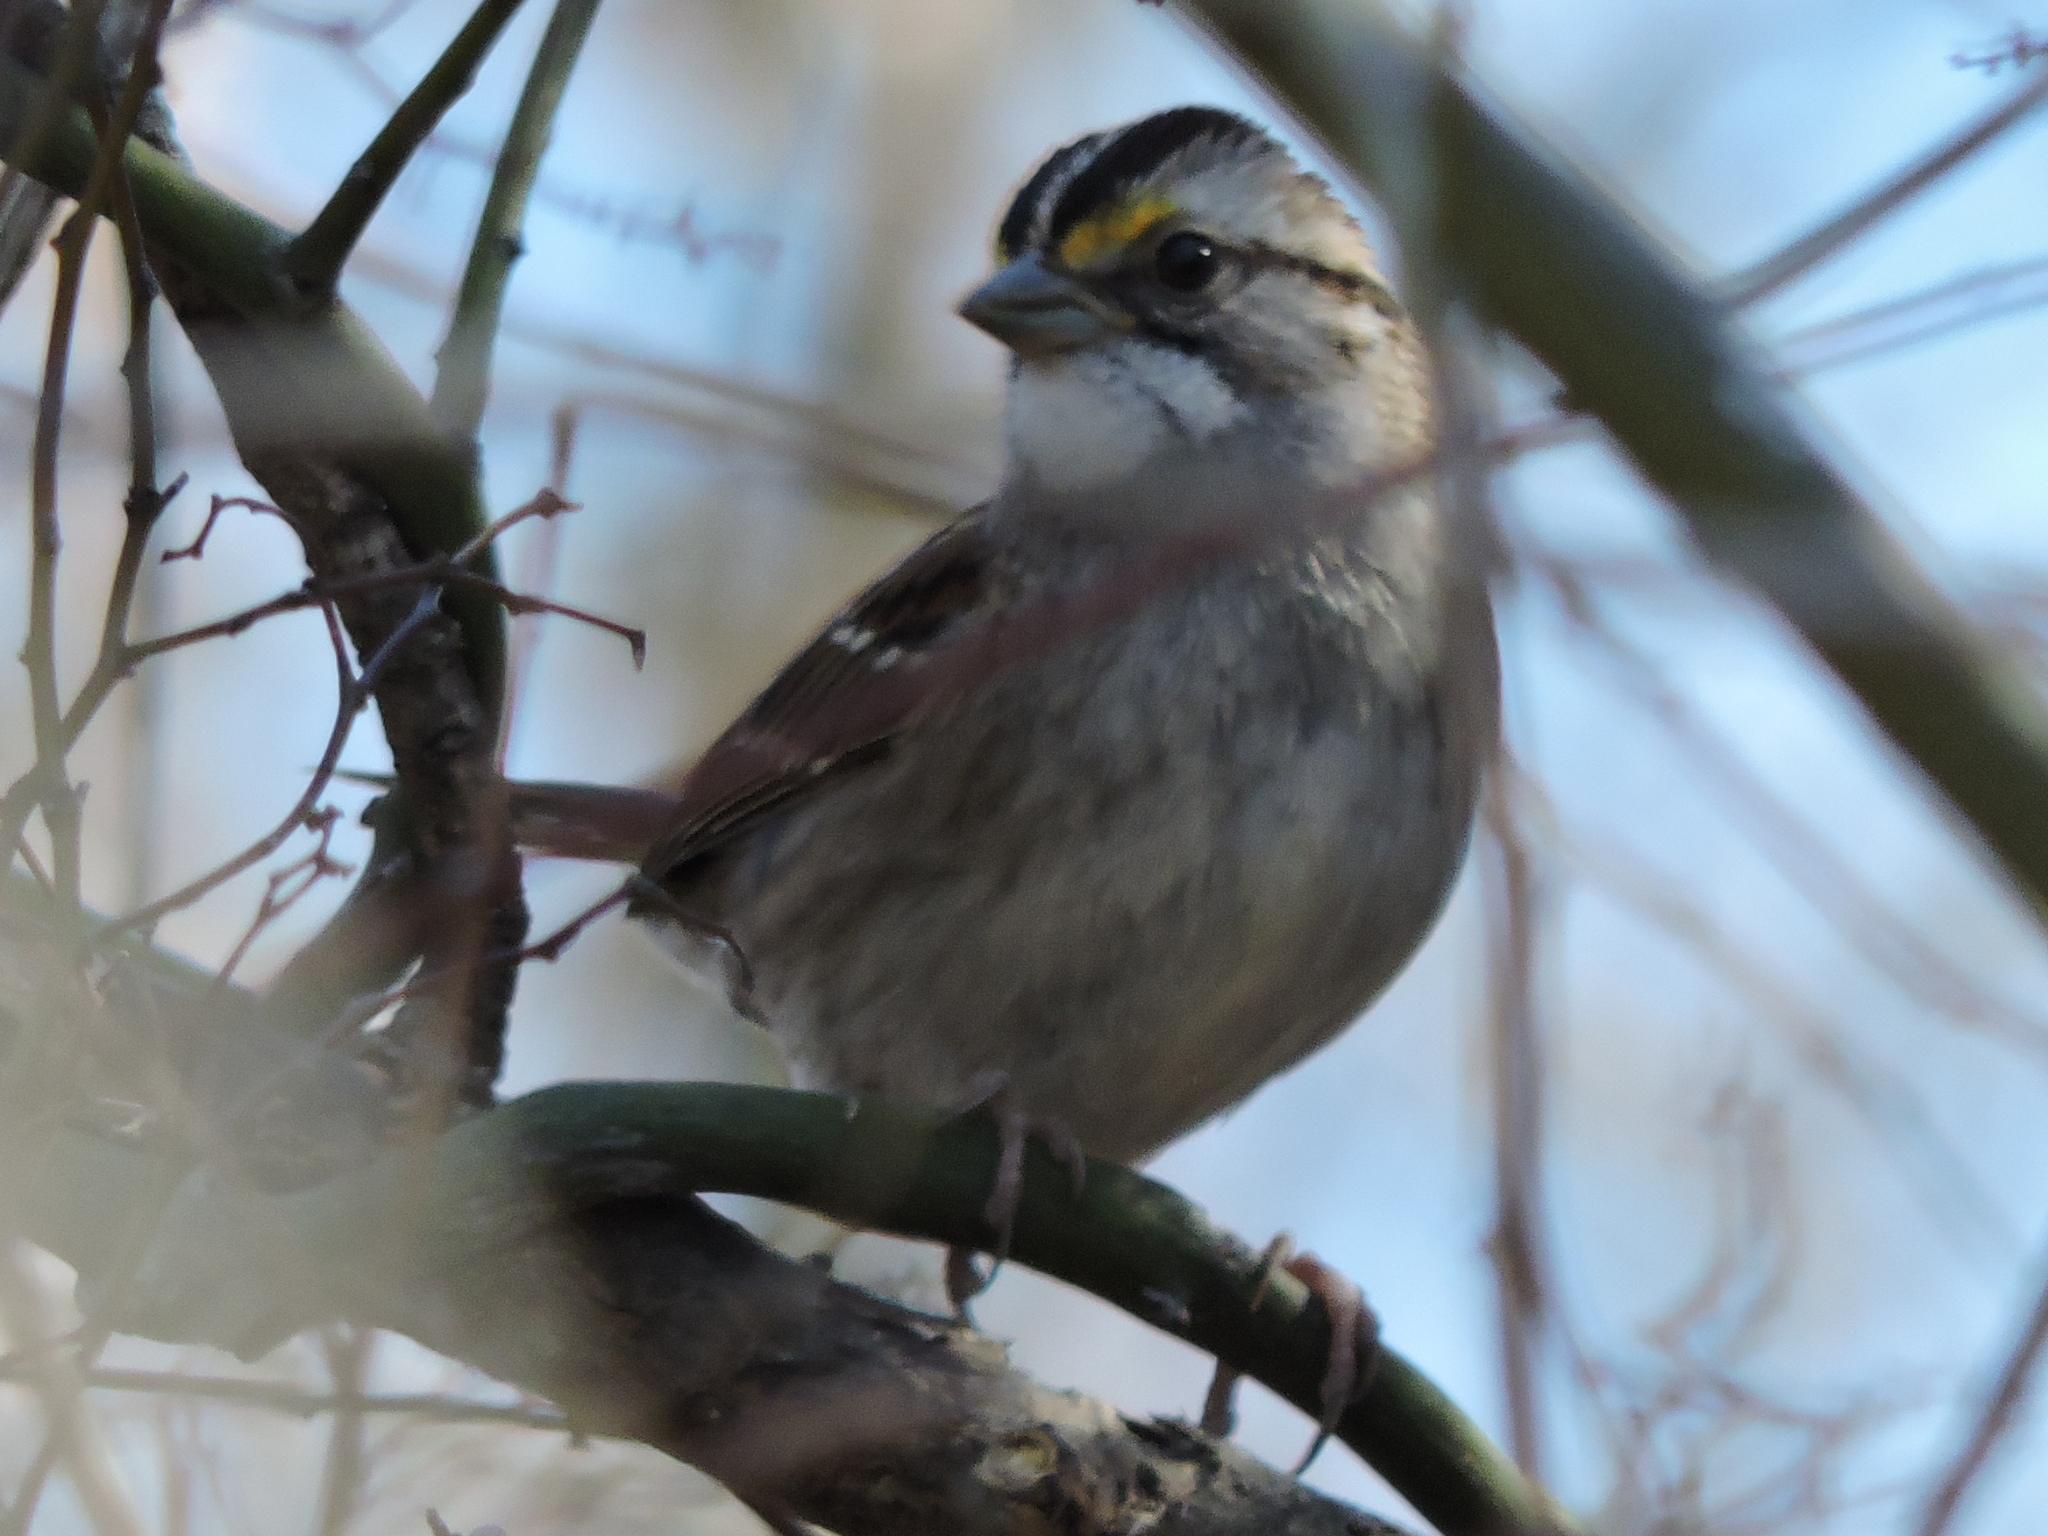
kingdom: Animalia
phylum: Chordata
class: Aves
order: Passeriformes
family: Passerellidae
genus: Zonotrichia
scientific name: Zonotrichia albicollis
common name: White-throated sparrow
